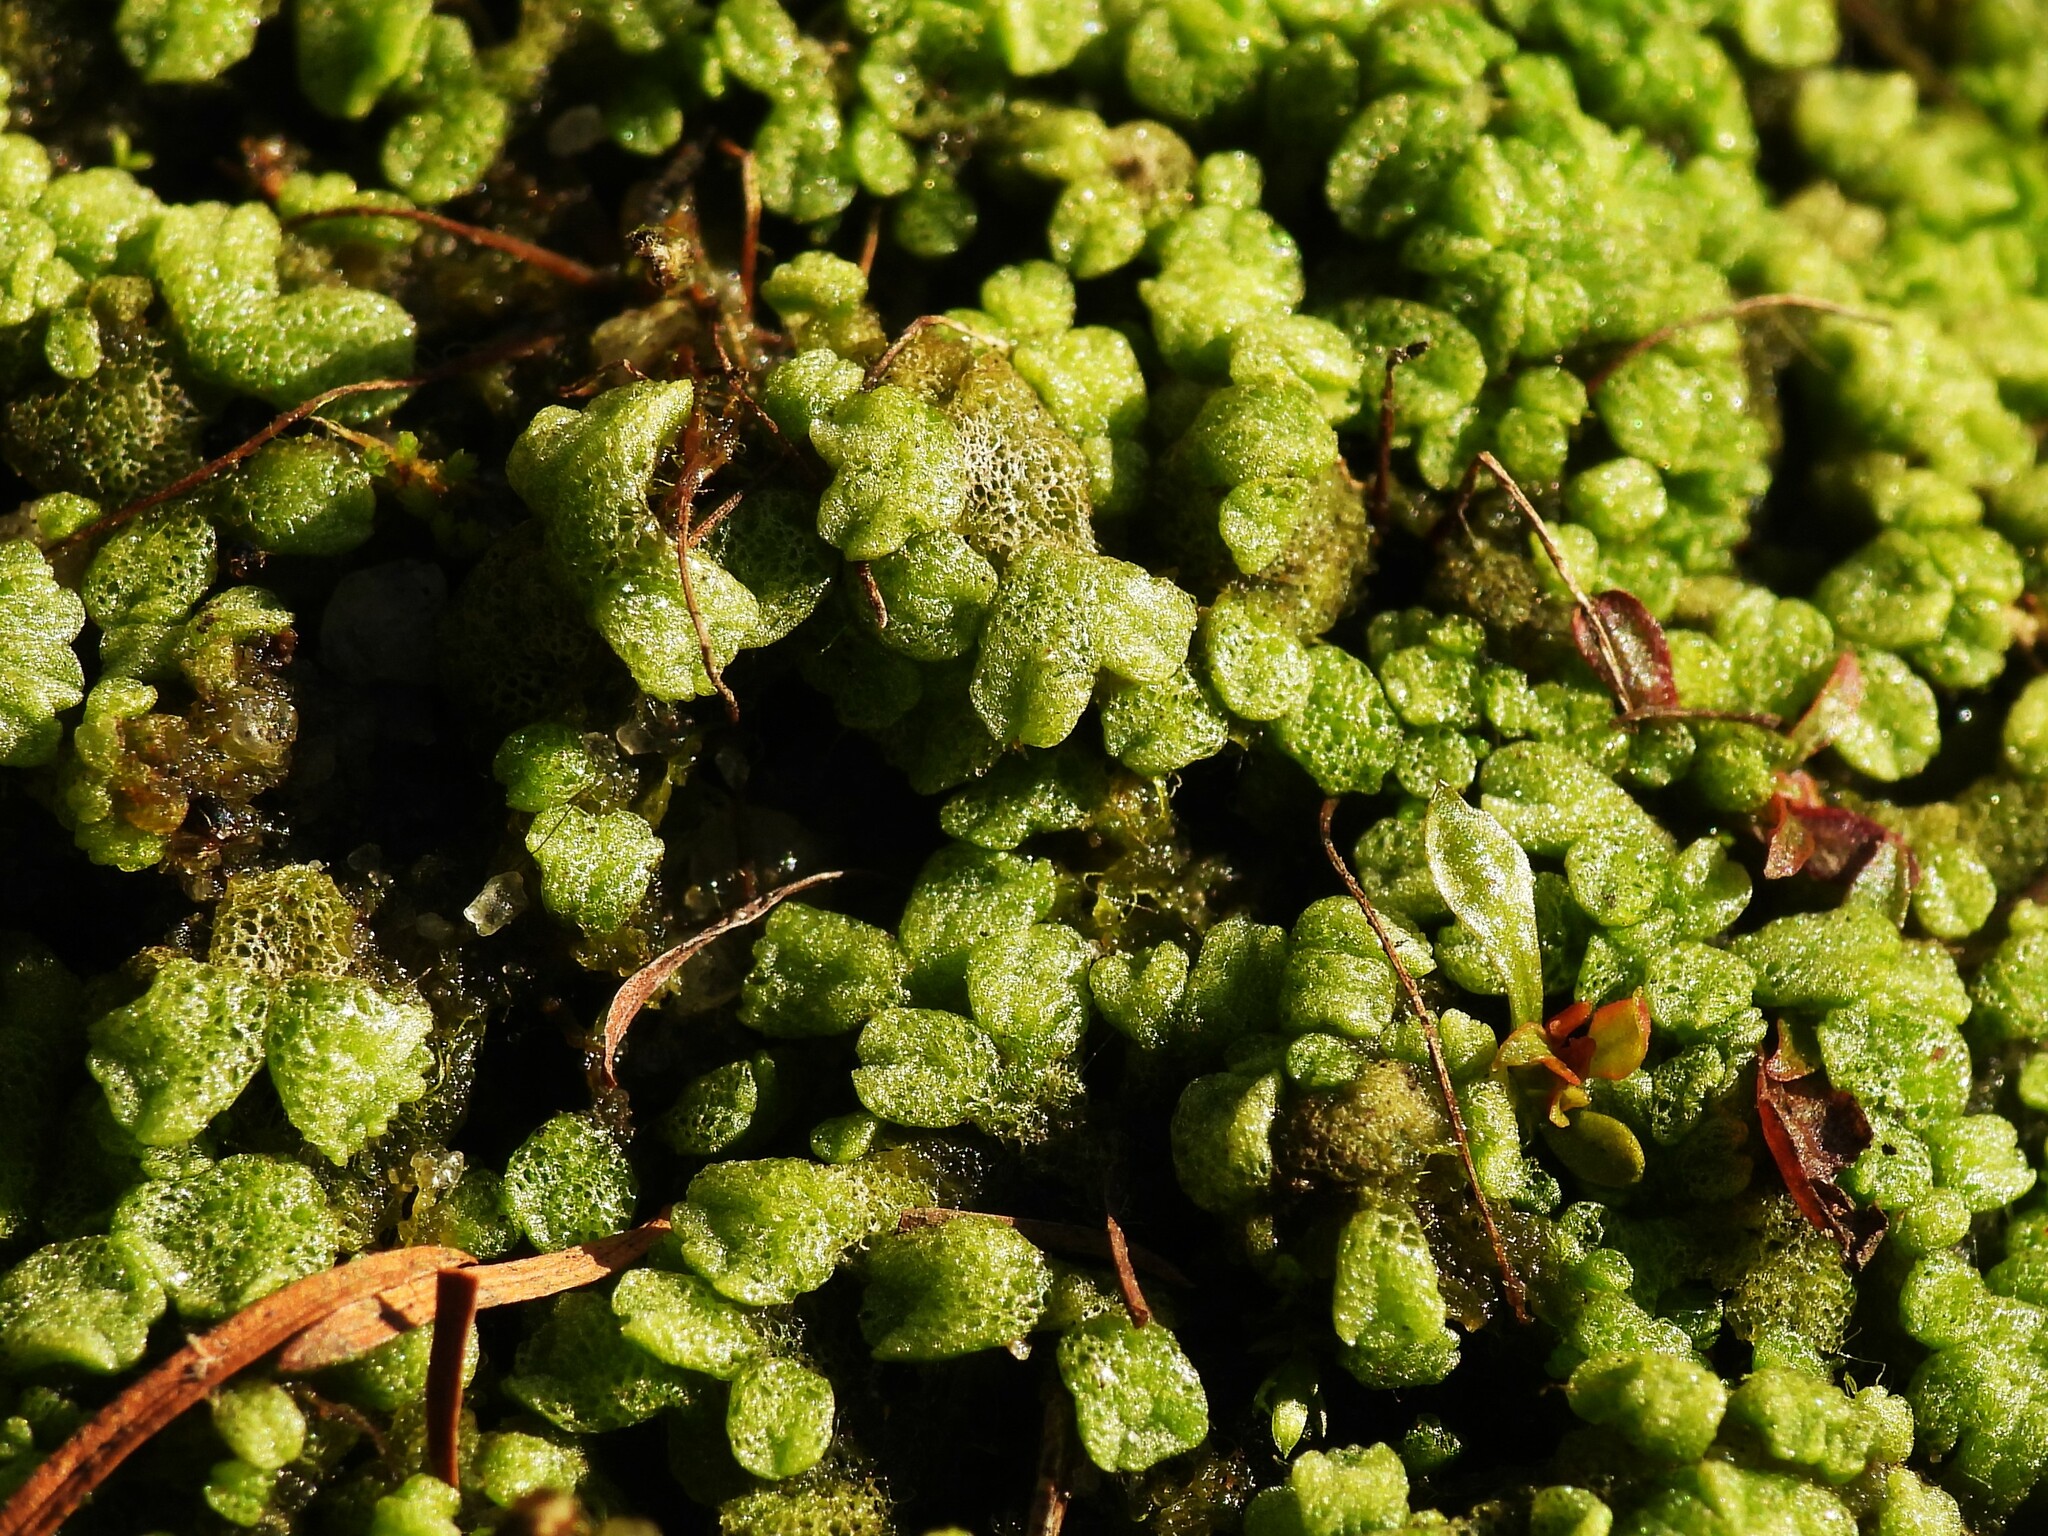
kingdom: Plantae
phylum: Marchantiophyta
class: Marchantiopsida
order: Marchantiales
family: Ricciaceae
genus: Riccia
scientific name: Riccia cavernosa
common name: Cavernous crystalwort
